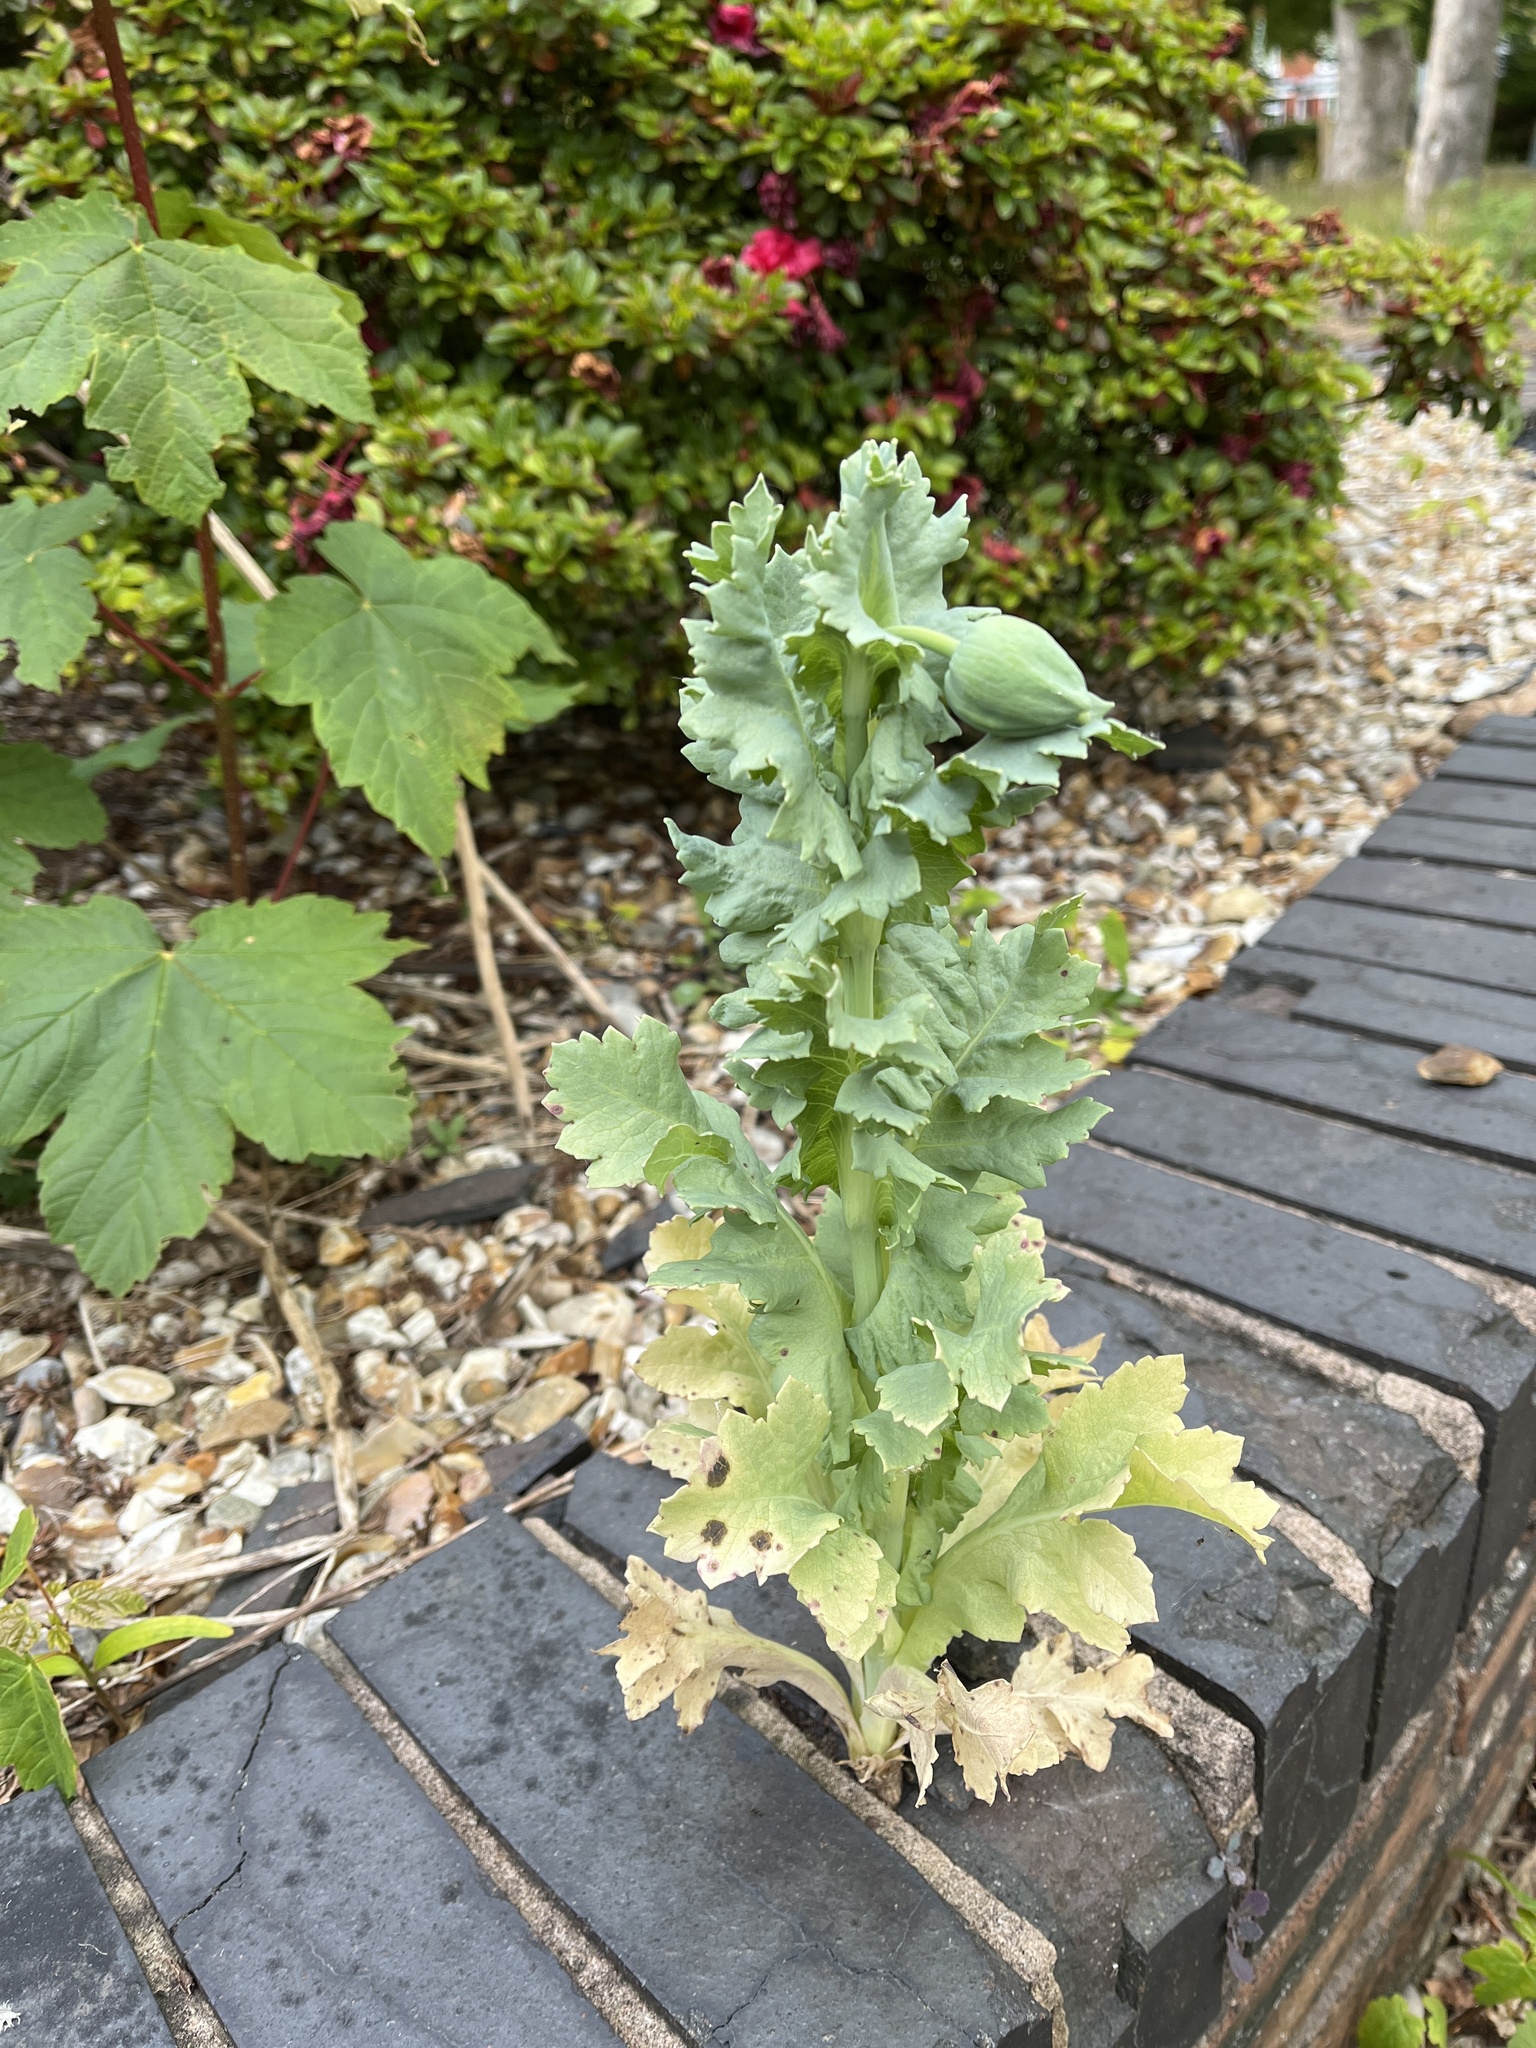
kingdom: Plantae
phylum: Tracheophyta
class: Magnoliopsida
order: Ranunculales
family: Papaveraceae
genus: Papaver
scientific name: Papaver somniferum
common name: Opium poppy
